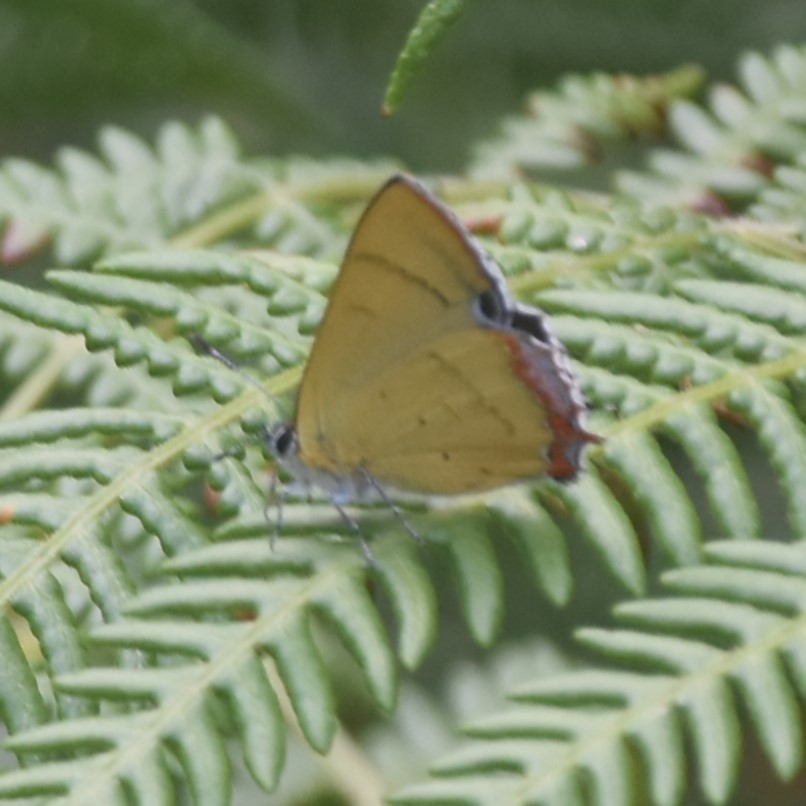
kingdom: Animalia
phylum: Arthropoda
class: Insecta
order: Lepidoptera
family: Lycaenidae
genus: Heliophorus
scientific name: Heliophorus
